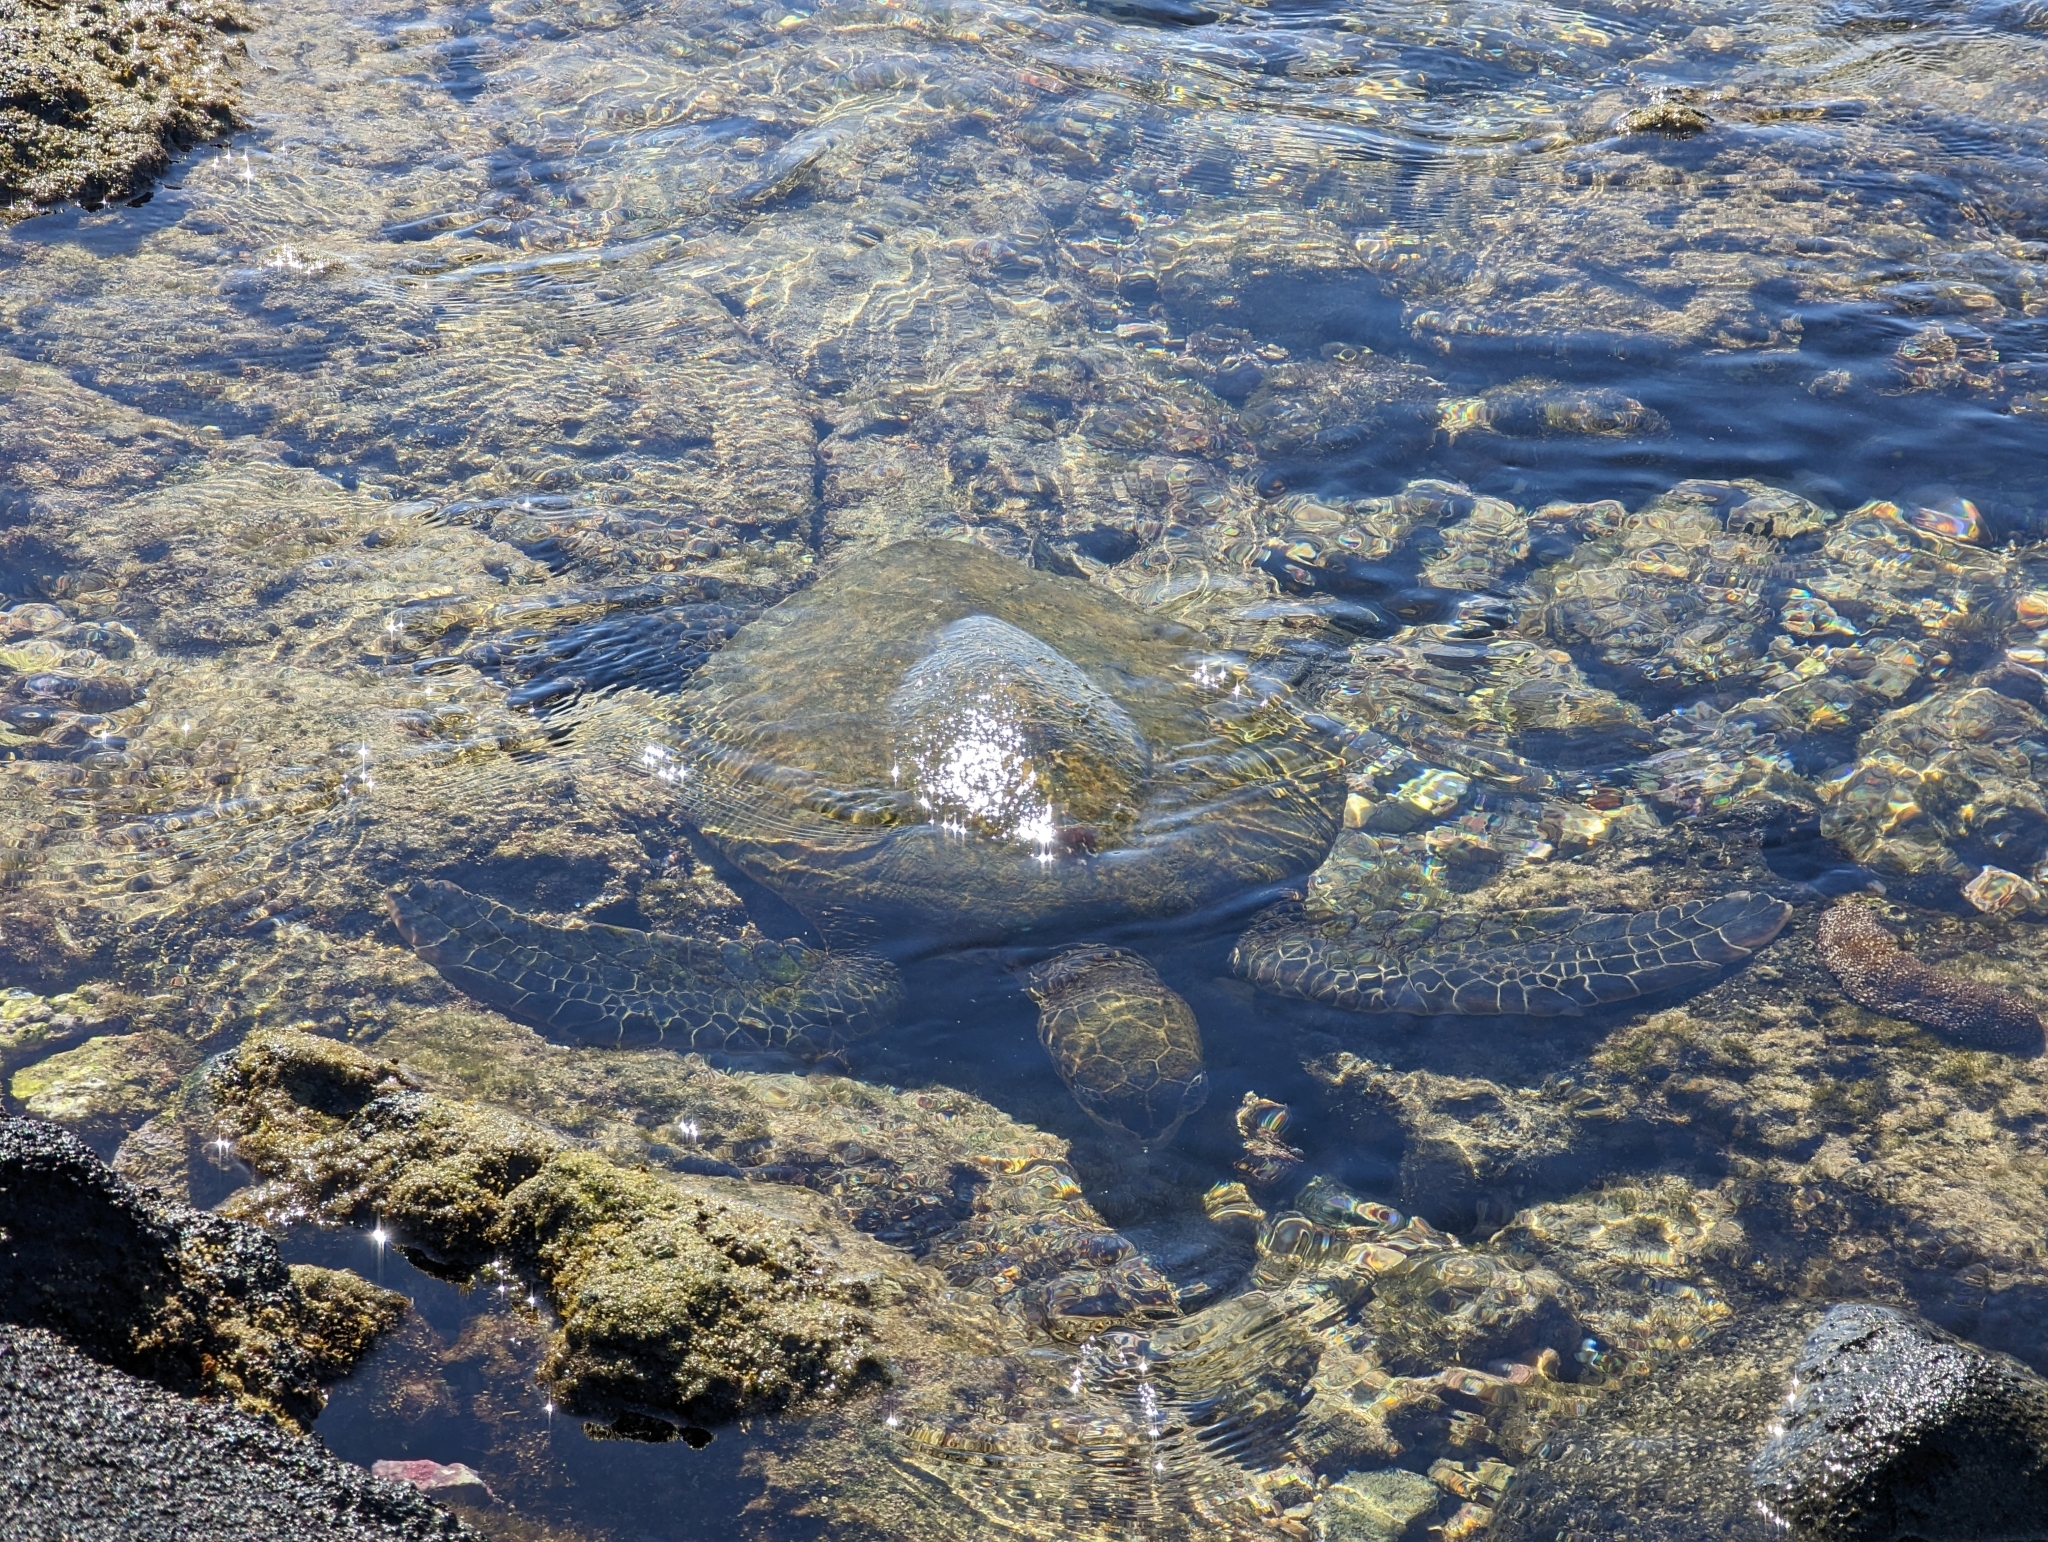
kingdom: Animalia
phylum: Chordata
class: Testudines
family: Cheloniidae
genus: Chelonia
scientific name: Chelonia mydas
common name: Green turtle
